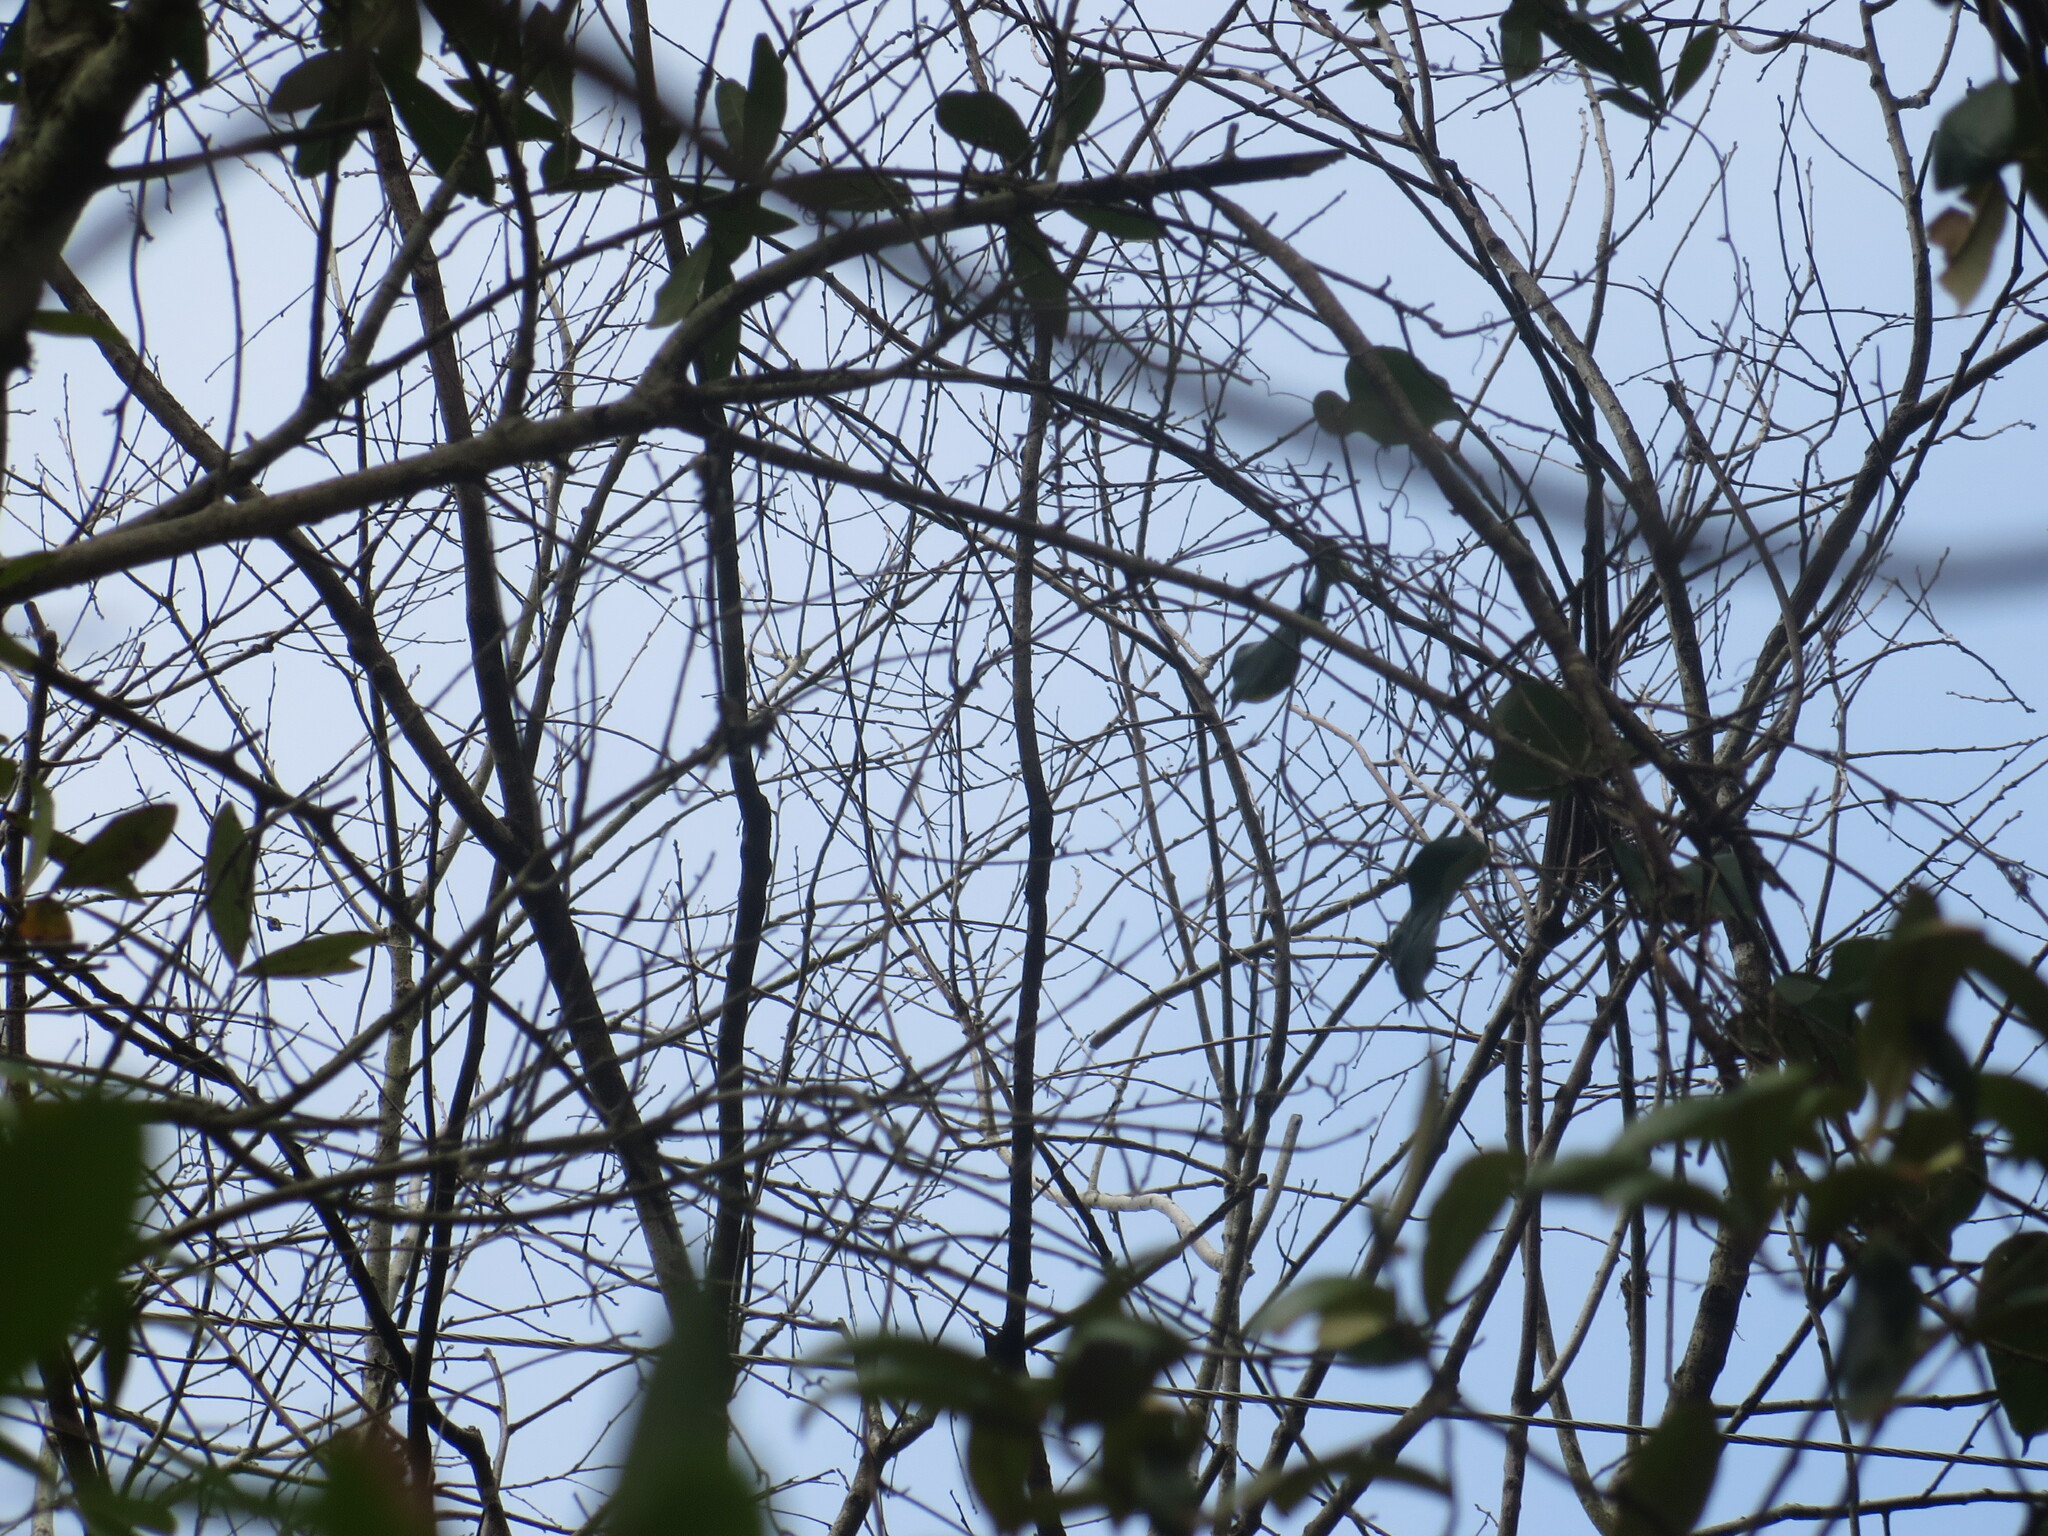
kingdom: Plantae
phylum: Tracheophyta
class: Magnoliopsida
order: Ericales
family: Ebenaceae
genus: Diospyros
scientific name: Diospyros virginiana
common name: Persimmon
